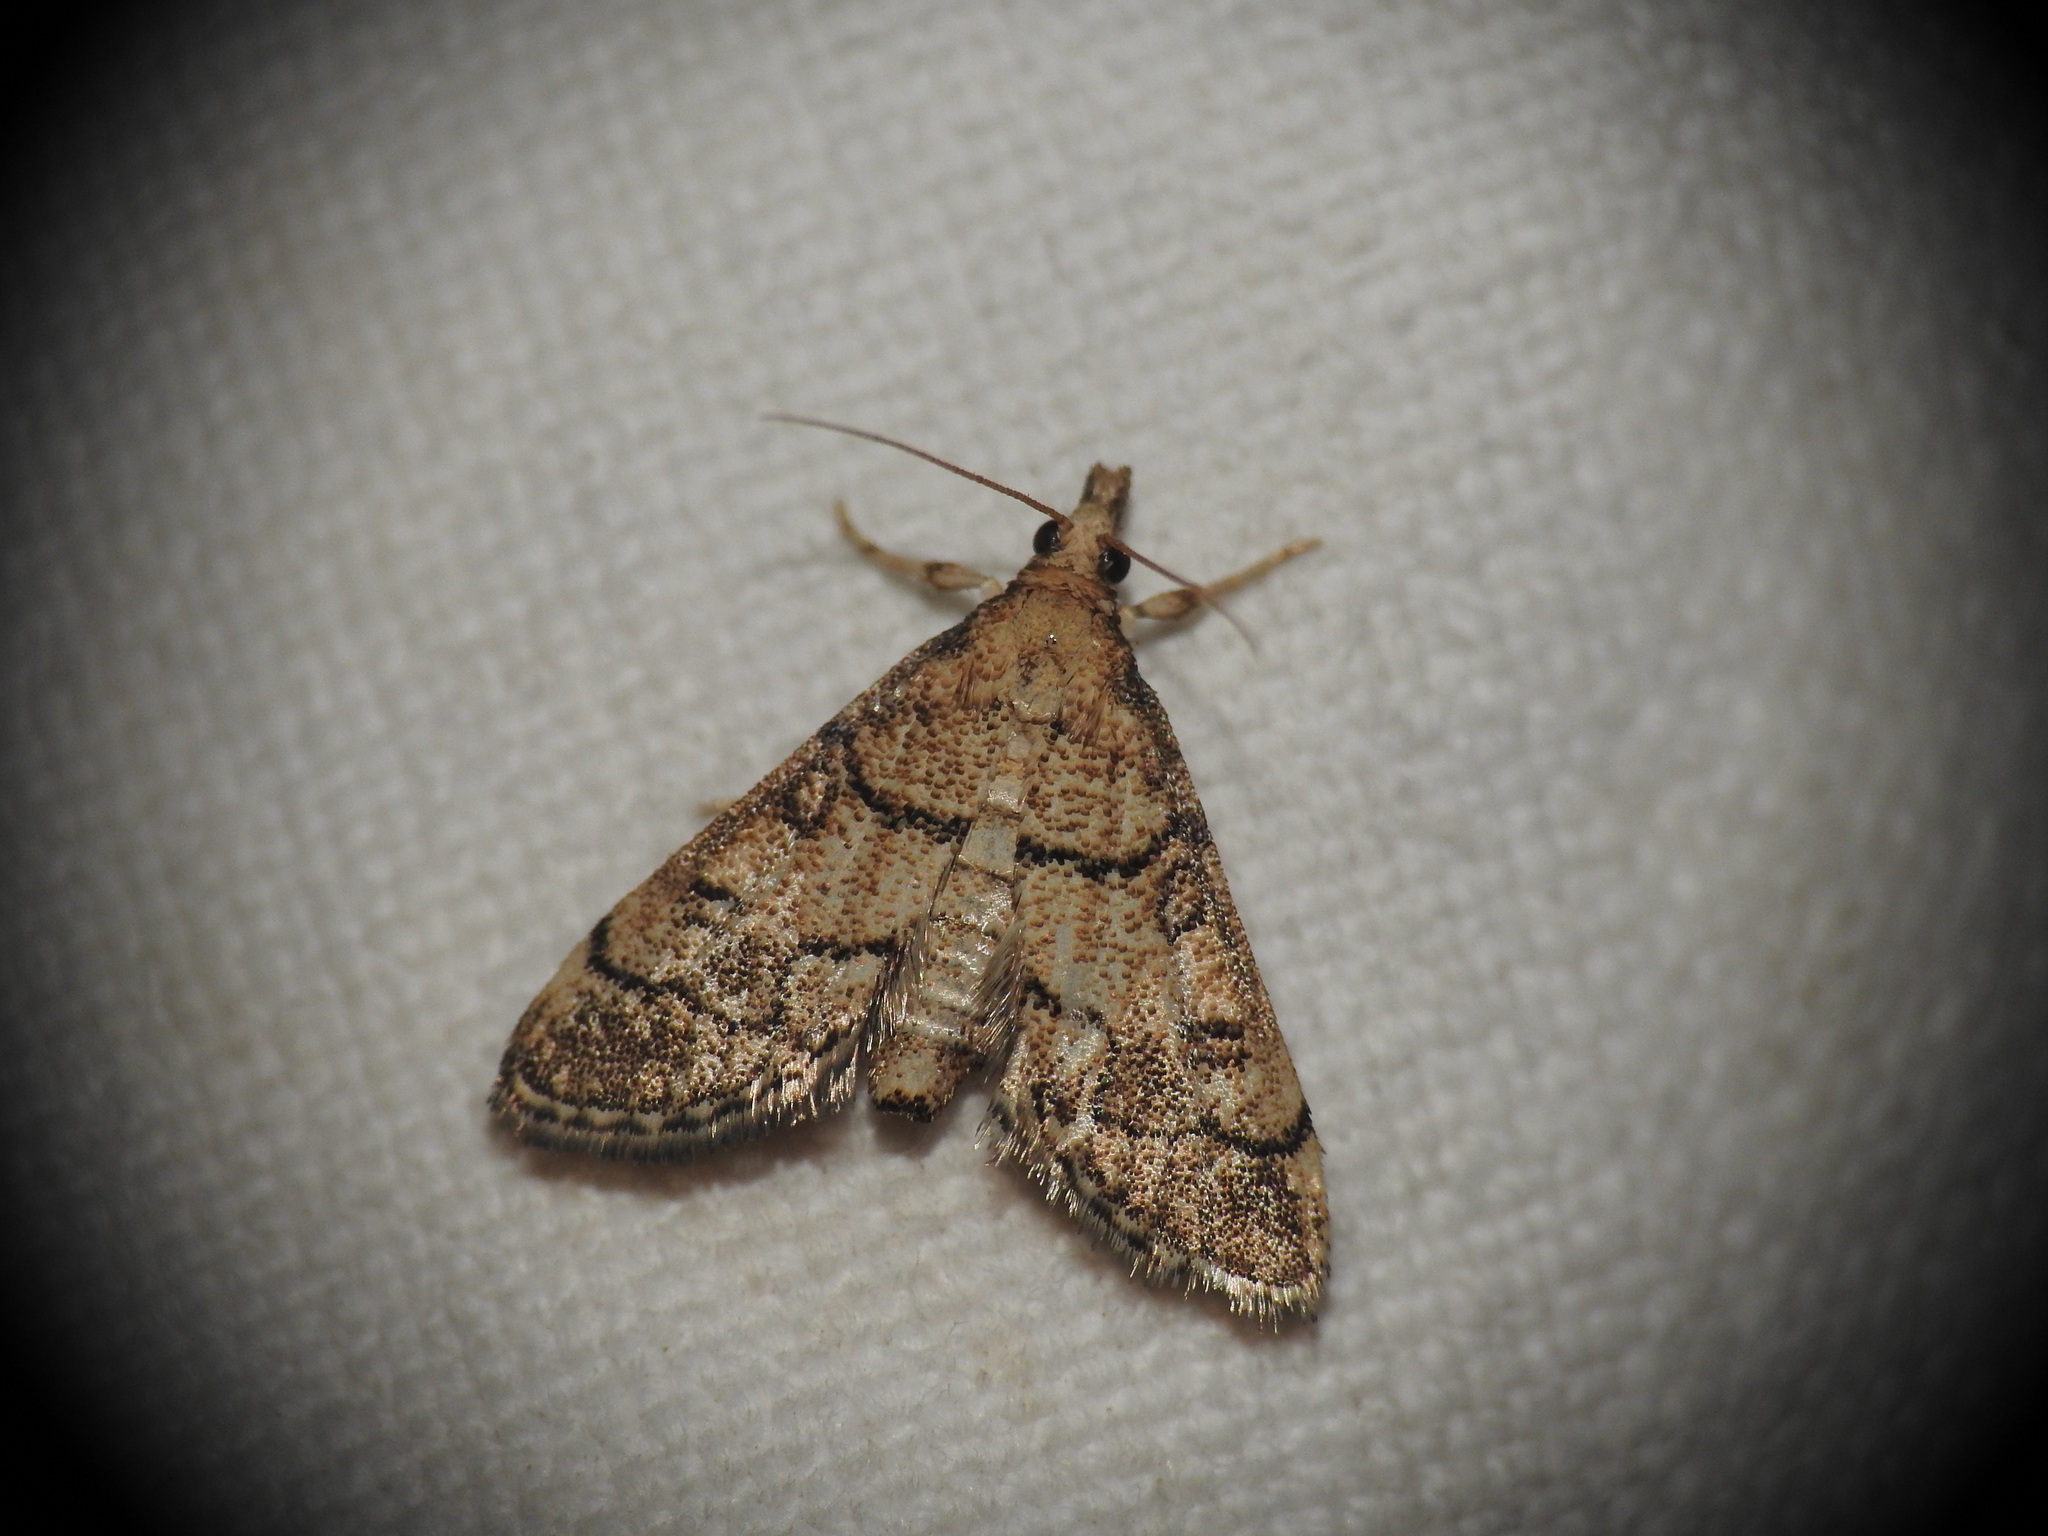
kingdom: Animalia
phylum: Arthropoda
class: Insecta
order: Lepidoptera
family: Crambidae
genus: Metasia
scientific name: Metasia cuencalis
